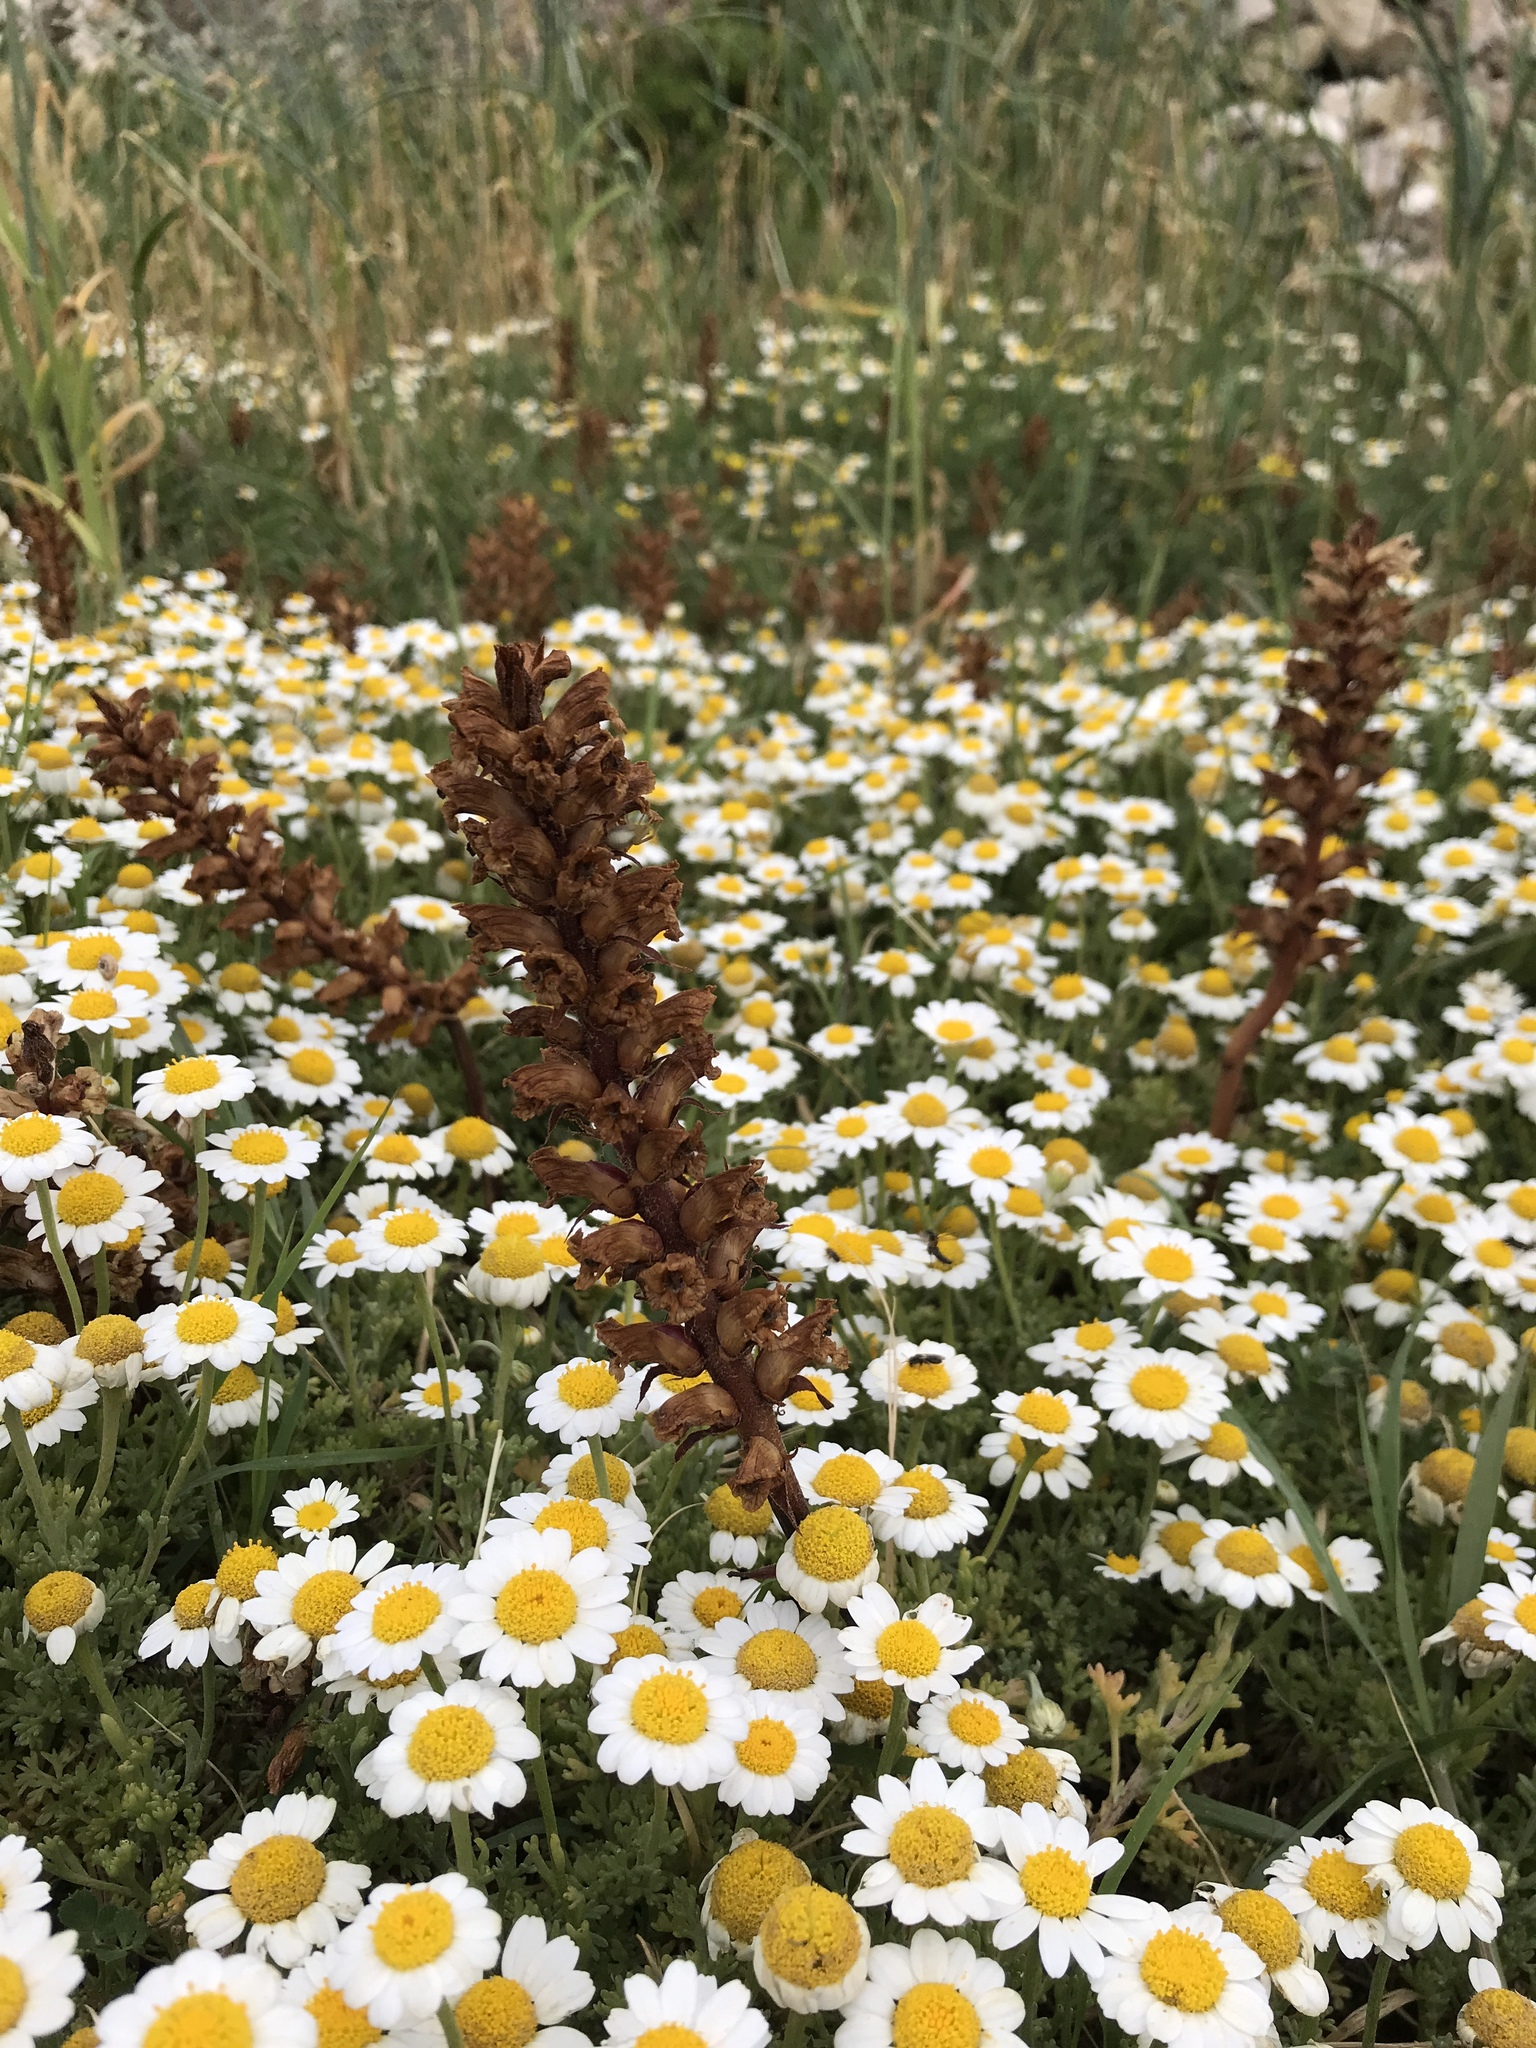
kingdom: Plantae
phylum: Tracheophyta
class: Magnoliopsida
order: Lamiales
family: Orobanchaceae
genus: Orobanche
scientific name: Orobanche litorea
